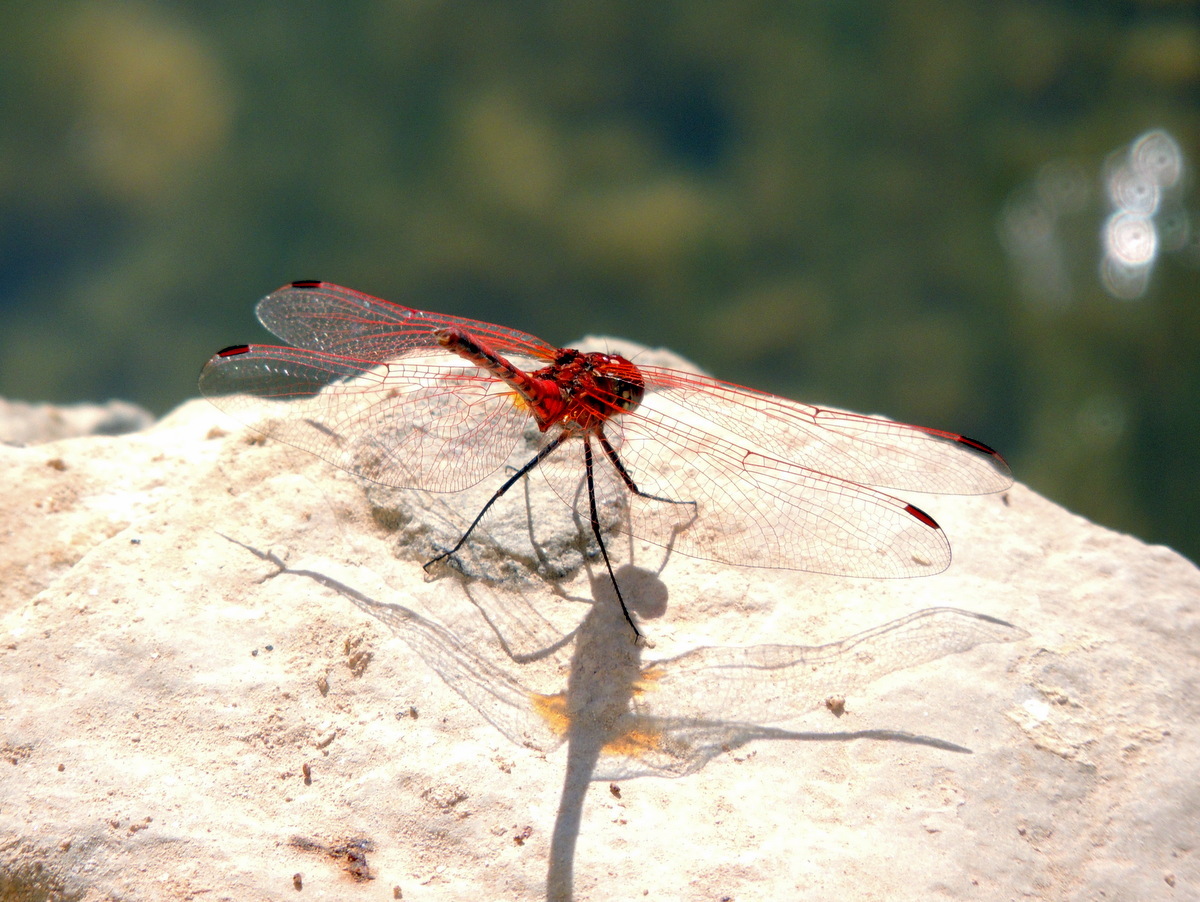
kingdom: Animalia
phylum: Arthropoda
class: Insecta
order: Odonata
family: Libellulidae
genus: Trithemis
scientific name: Trithemis arteriosa
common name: Red-veined dropwing
